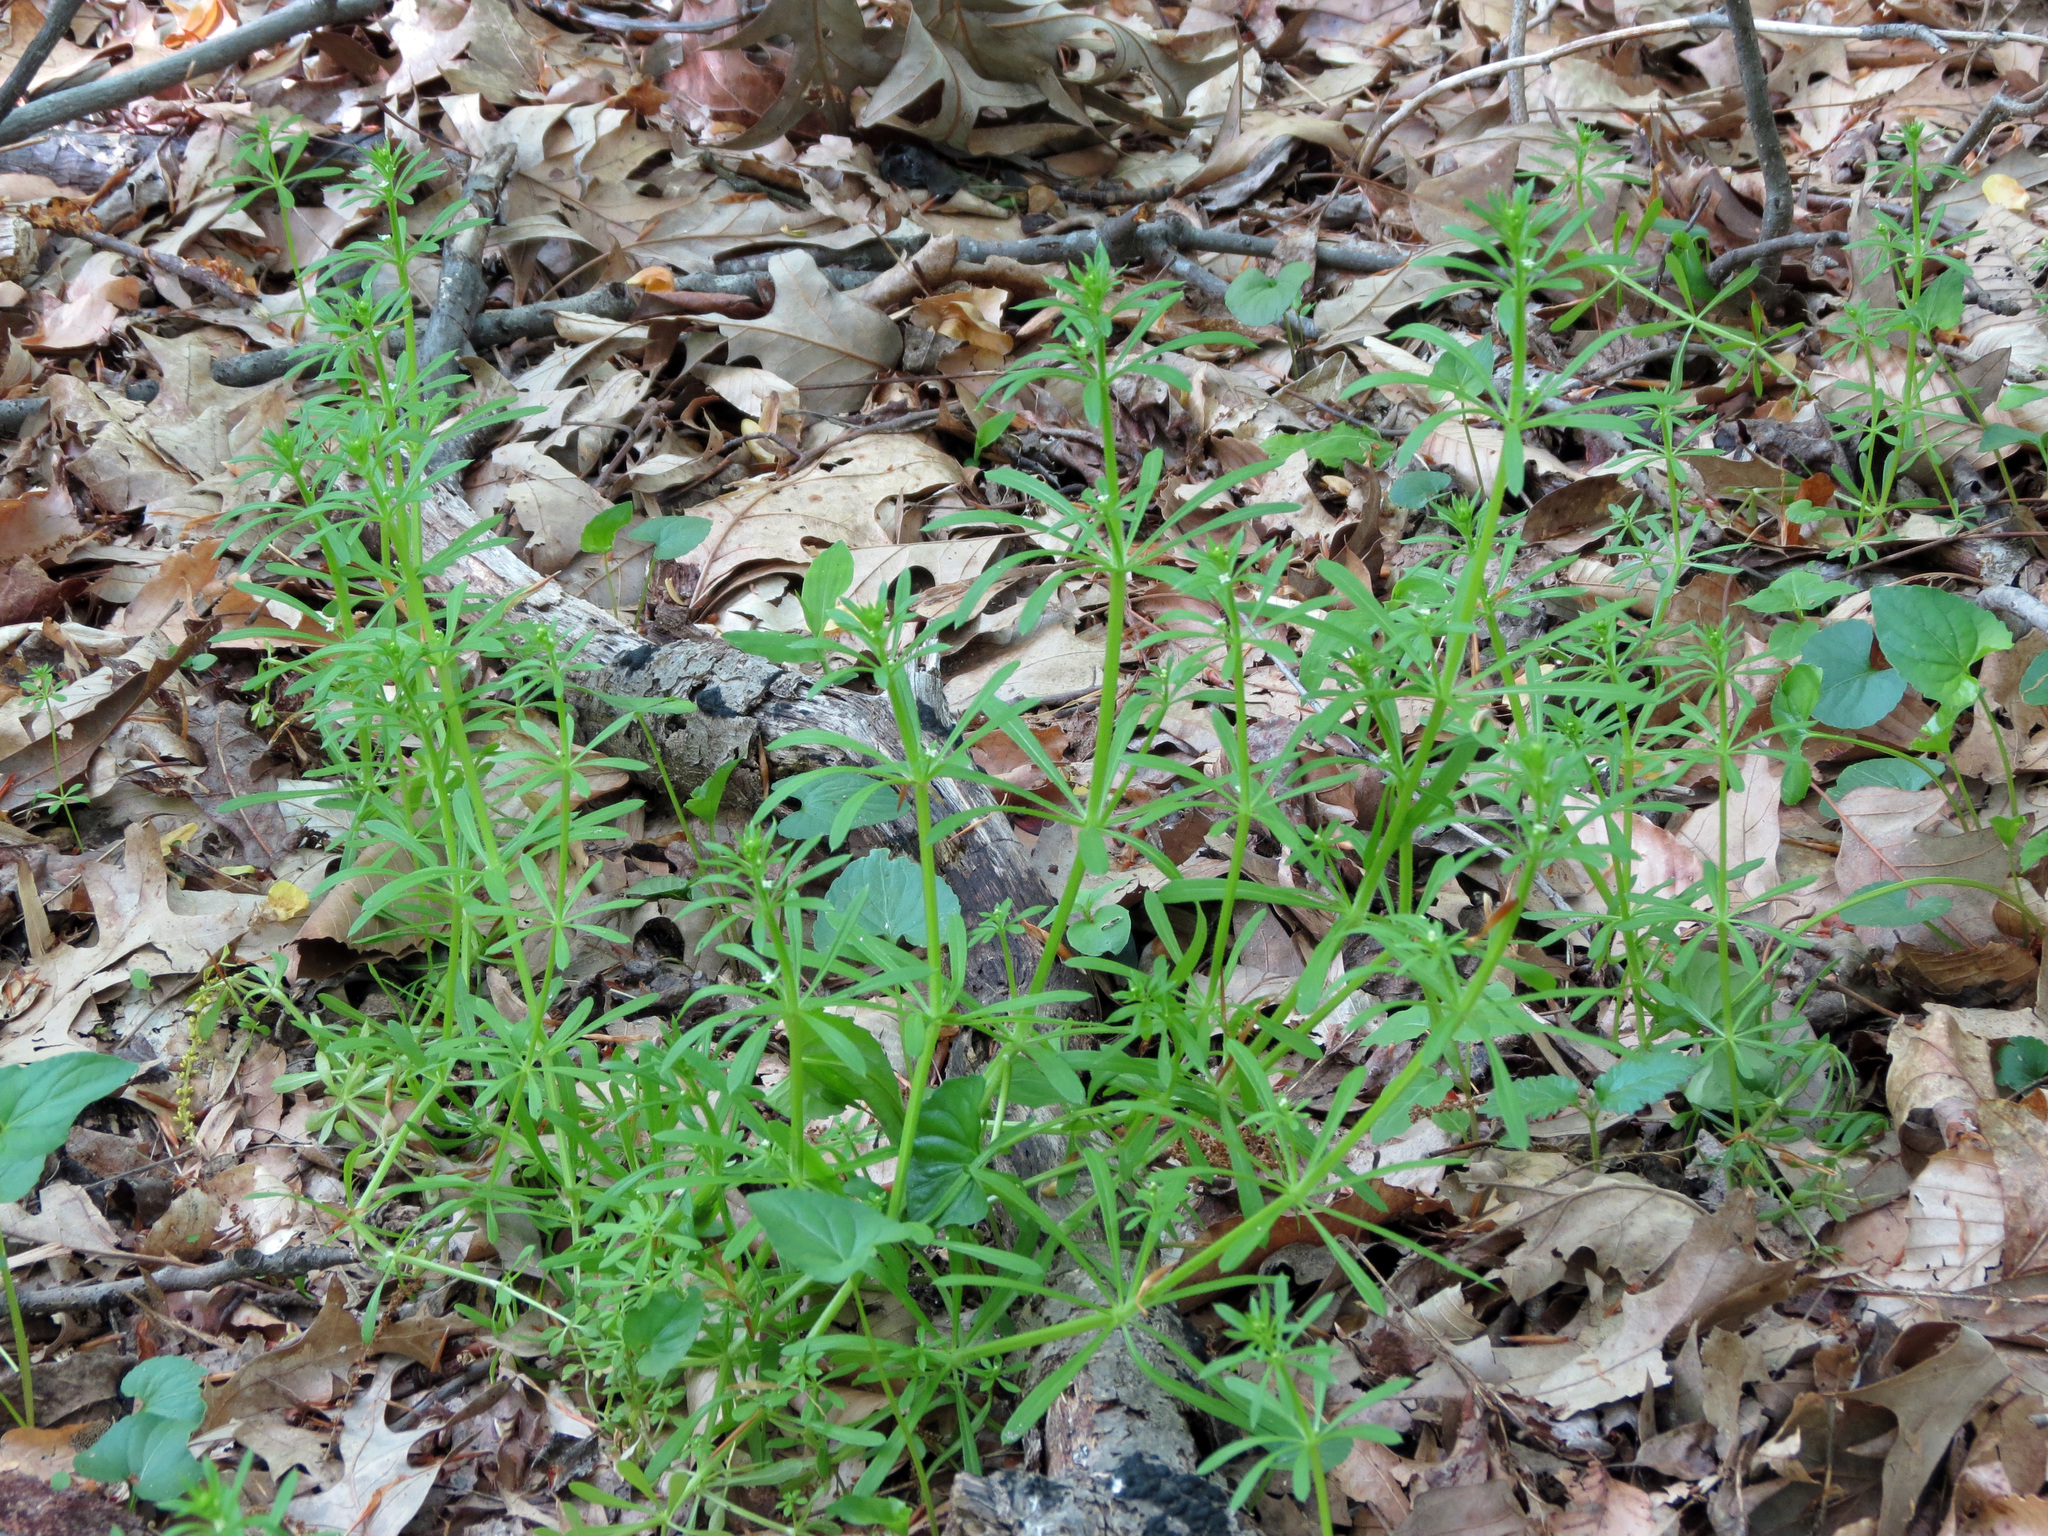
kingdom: Plantae
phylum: Tracheophyta
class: Magnoliopsida
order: Gentianales
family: Rubiaceae
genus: Galium
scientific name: Galium aparine
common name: Cleavers
